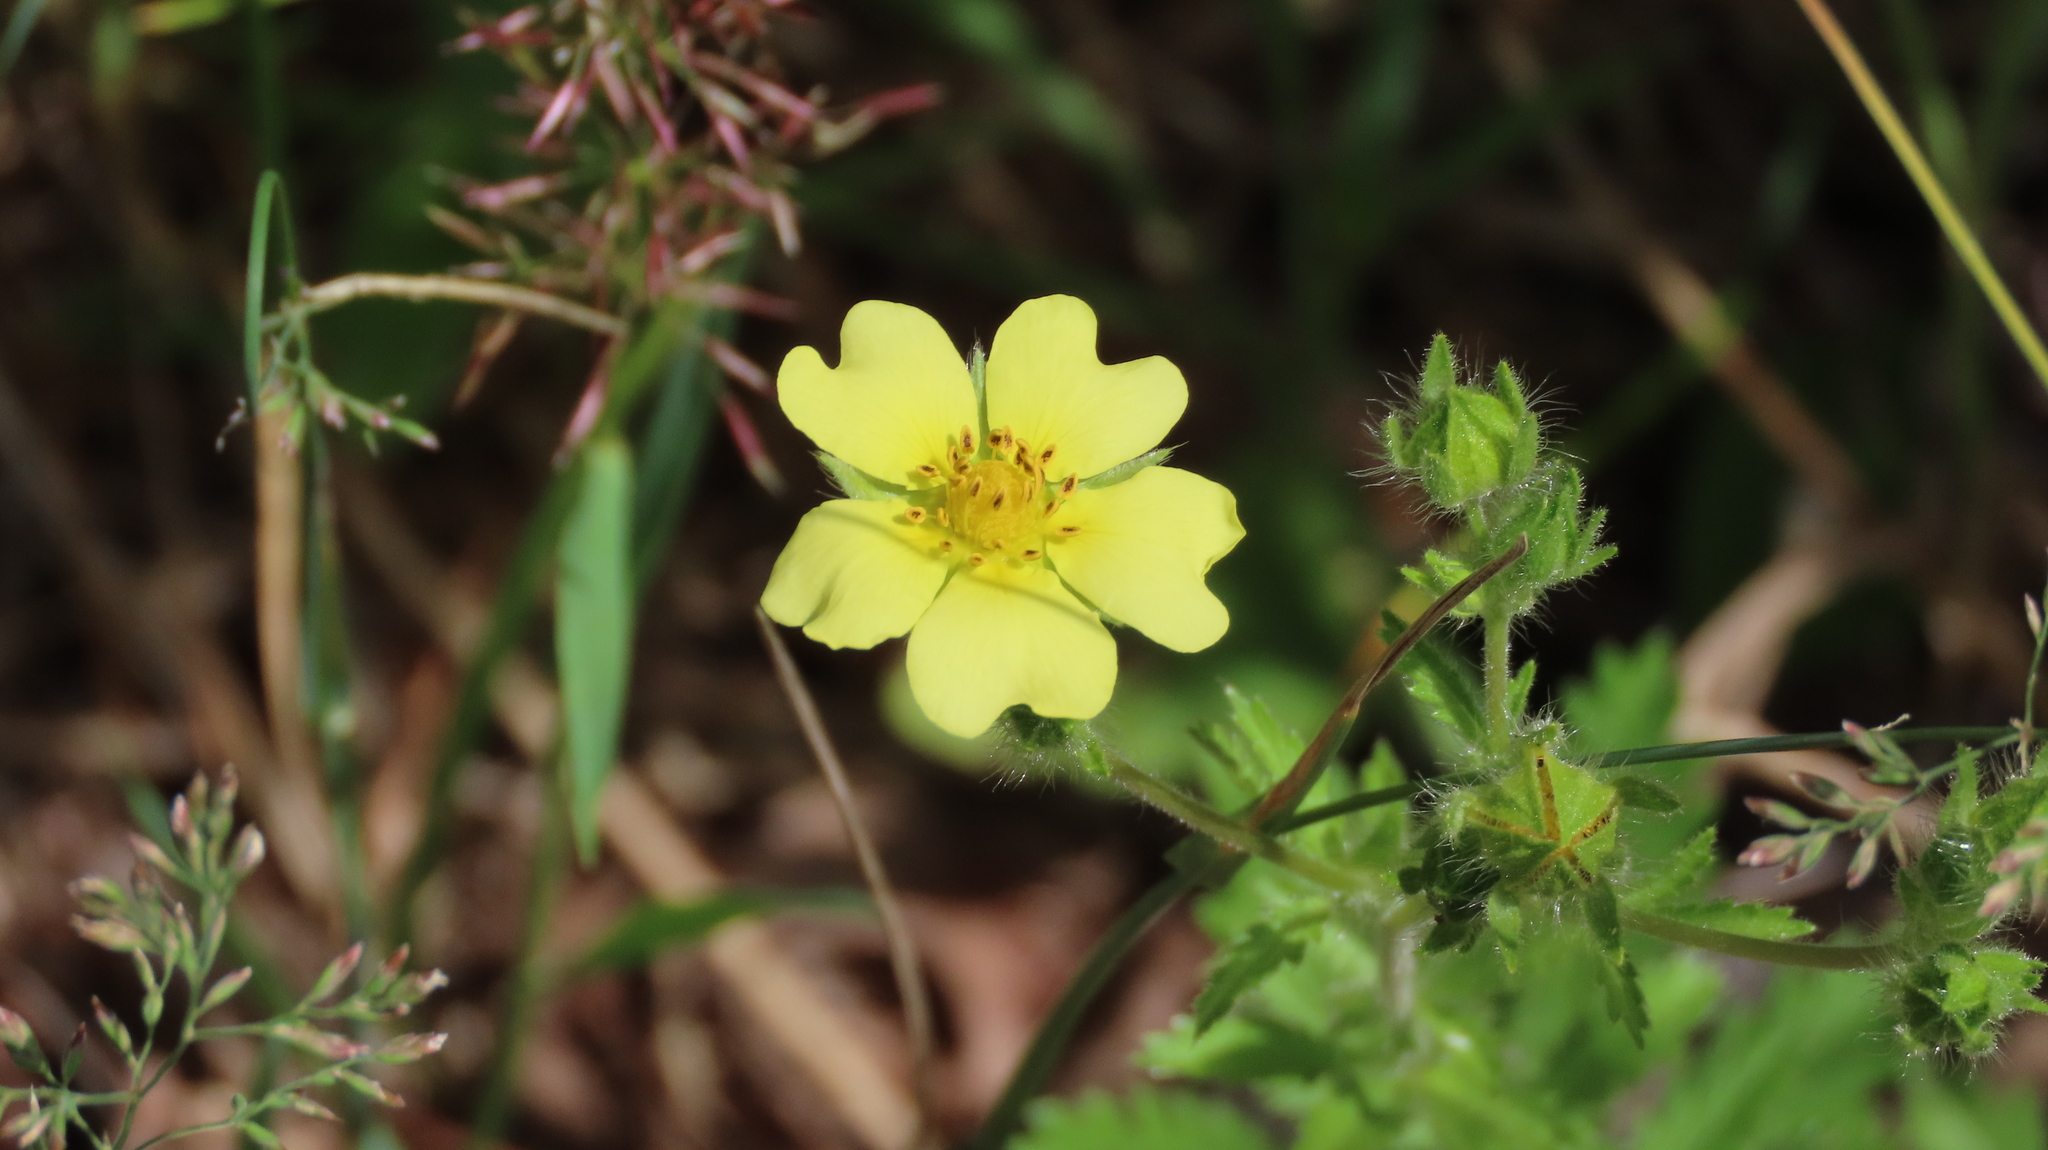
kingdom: Plantae
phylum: Tracheophyta
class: Magnoliopsida
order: Rosales
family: Rosaceae
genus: Potentilla
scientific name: Potentilla recta
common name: Sulphur cinquefoil
